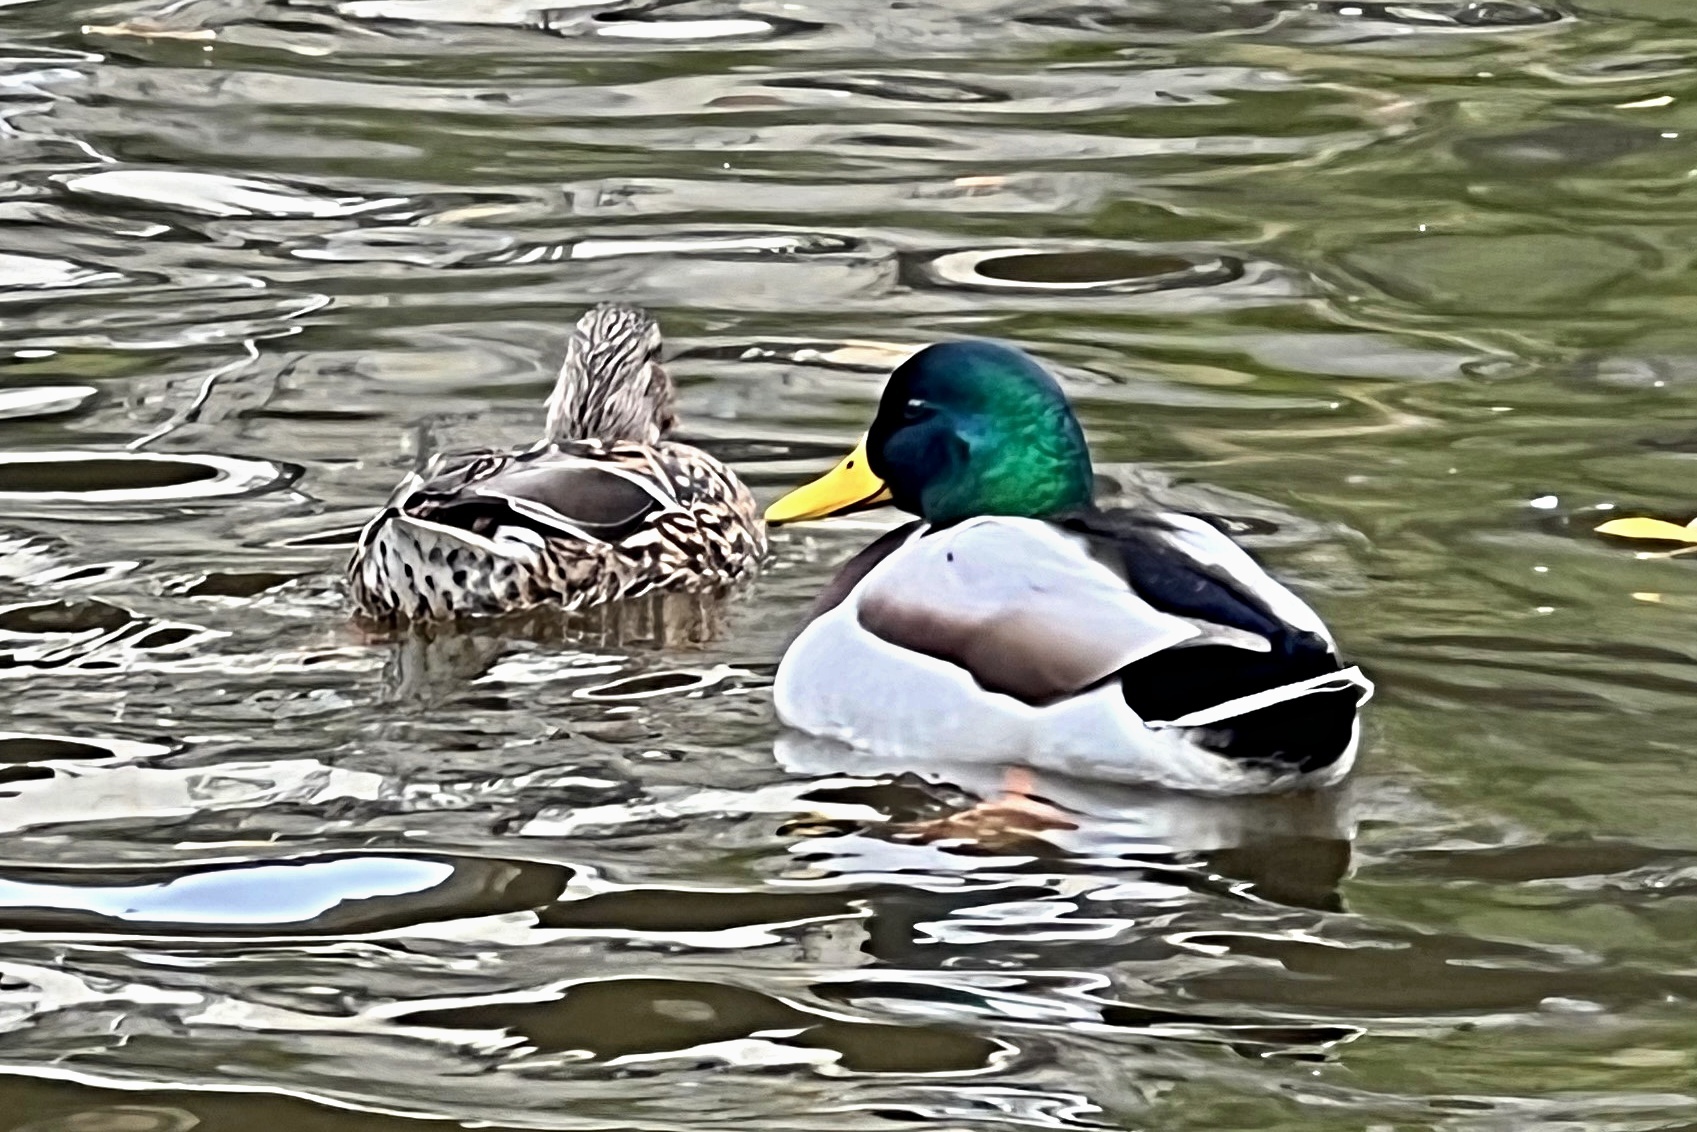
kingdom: Animalia
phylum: Chordata
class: Aves
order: Anseriformes
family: Anatidae
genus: Anas
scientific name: Anas platyrhynchos
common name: Mallard
